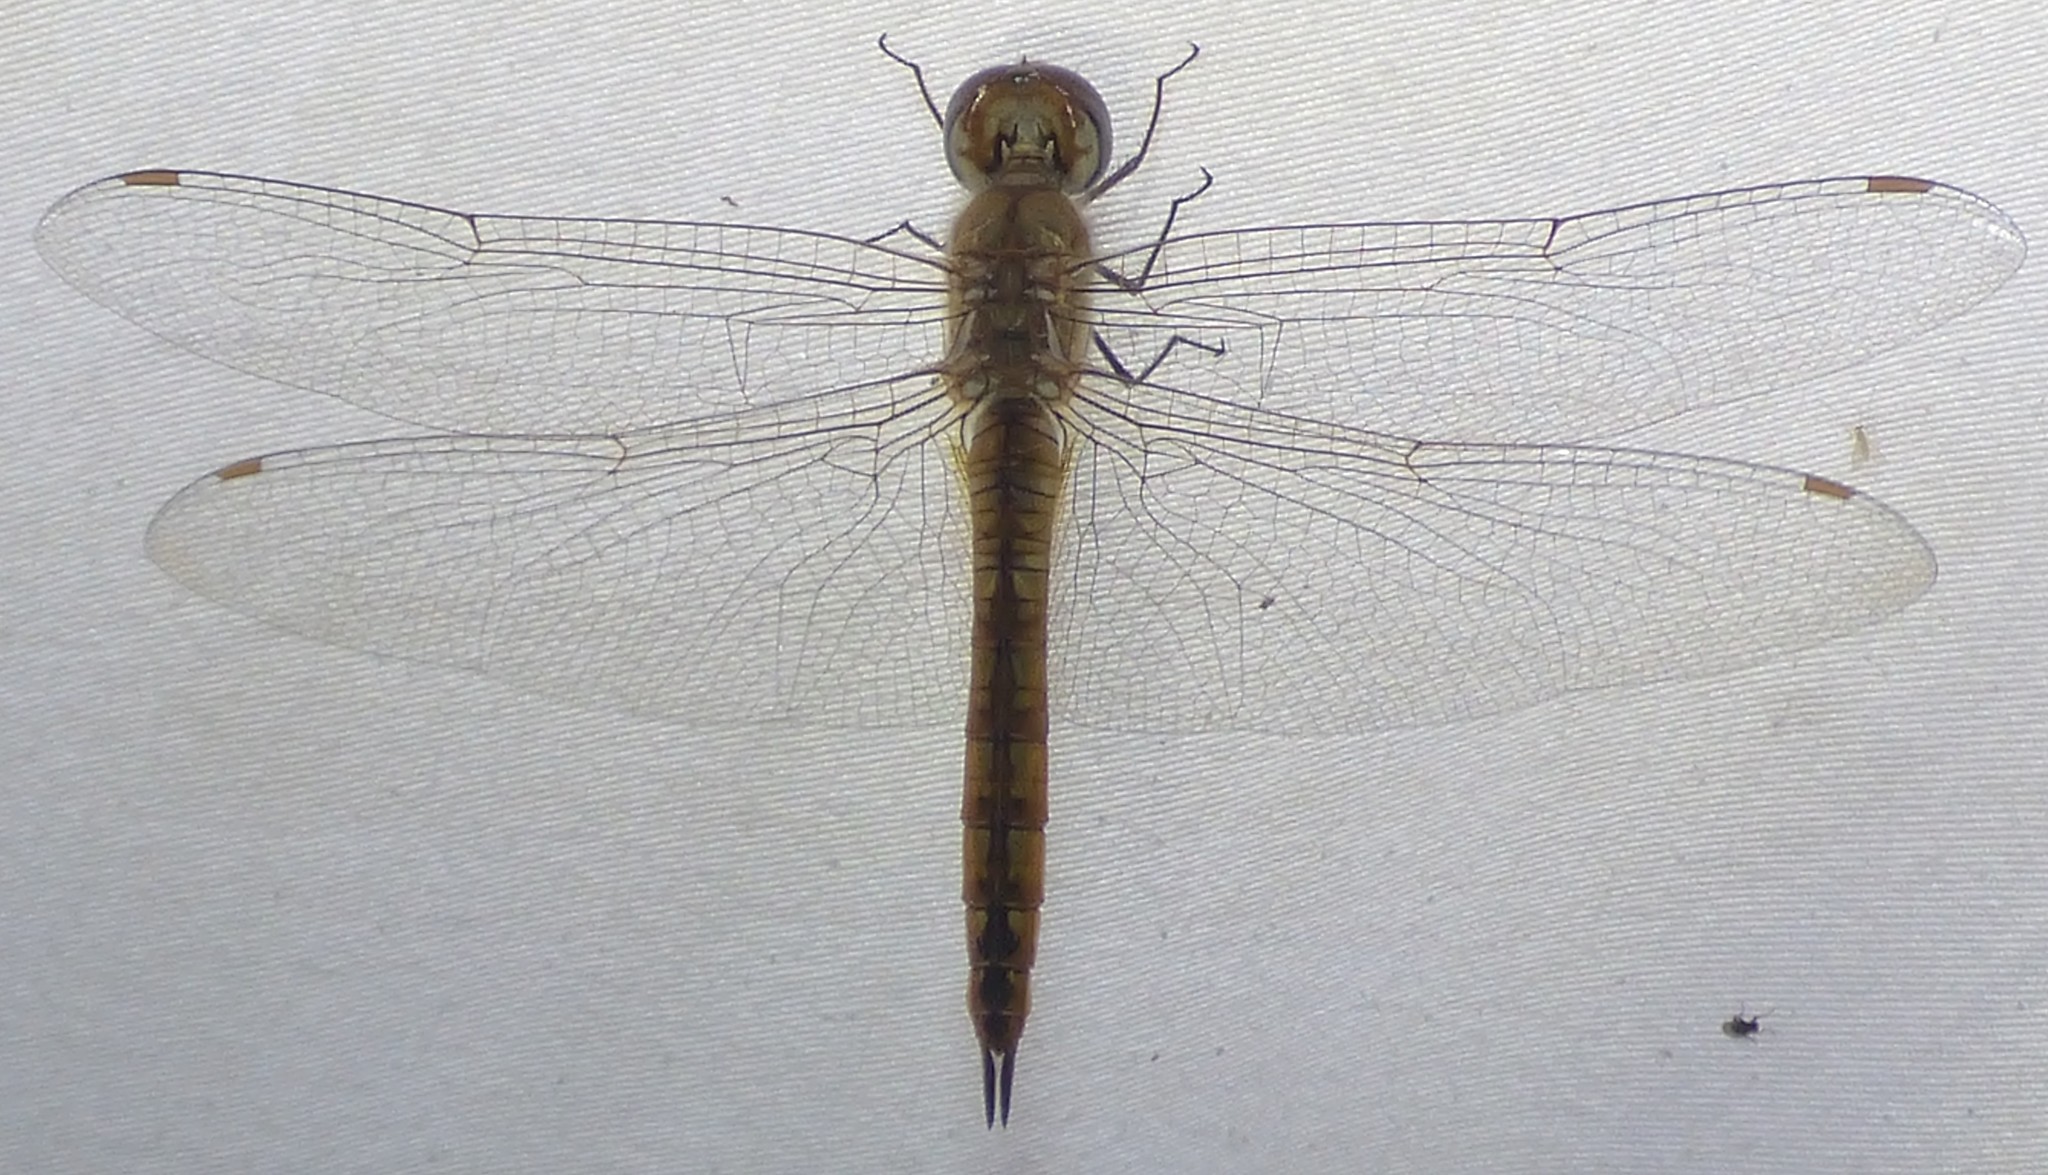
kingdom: Animalia
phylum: Arthropoda
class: Insecta
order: Odonata
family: Libellulidae
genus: Pantala
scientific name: Pantala flavescens
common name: Wandering glider
